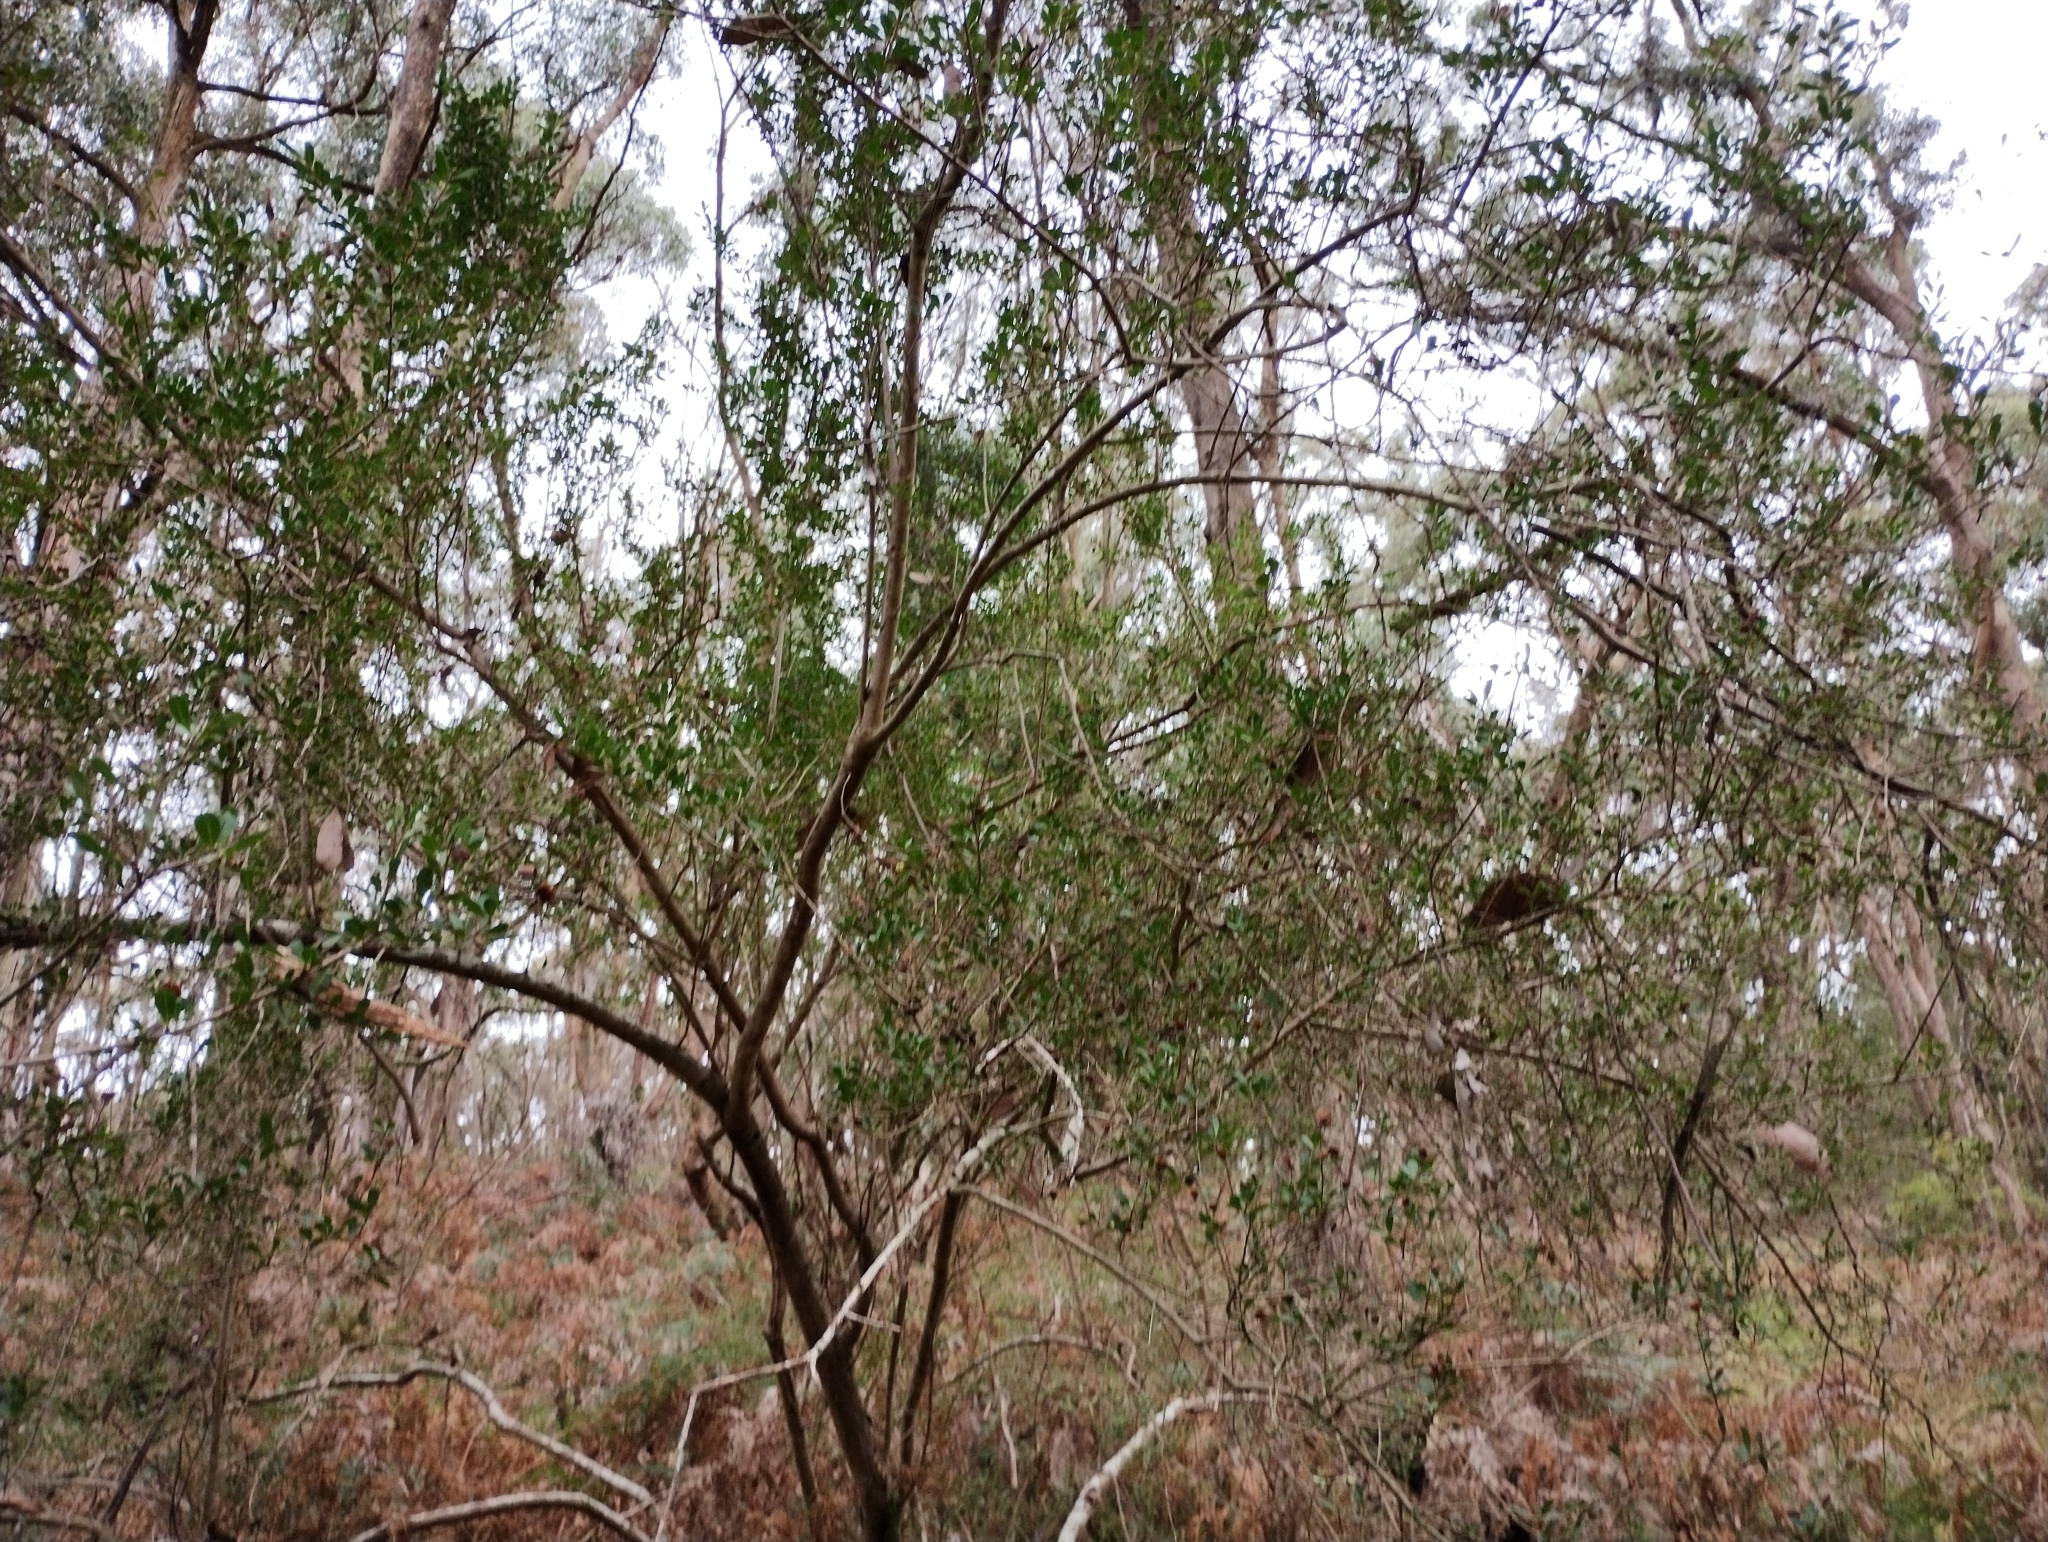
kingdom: Plantae
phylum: Tracheophyta
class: Magnoliopsida
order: Apiales
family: Pittosporaceae
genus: Bursaria
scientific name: Bursaria spinosa
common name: Australian blackthorn
